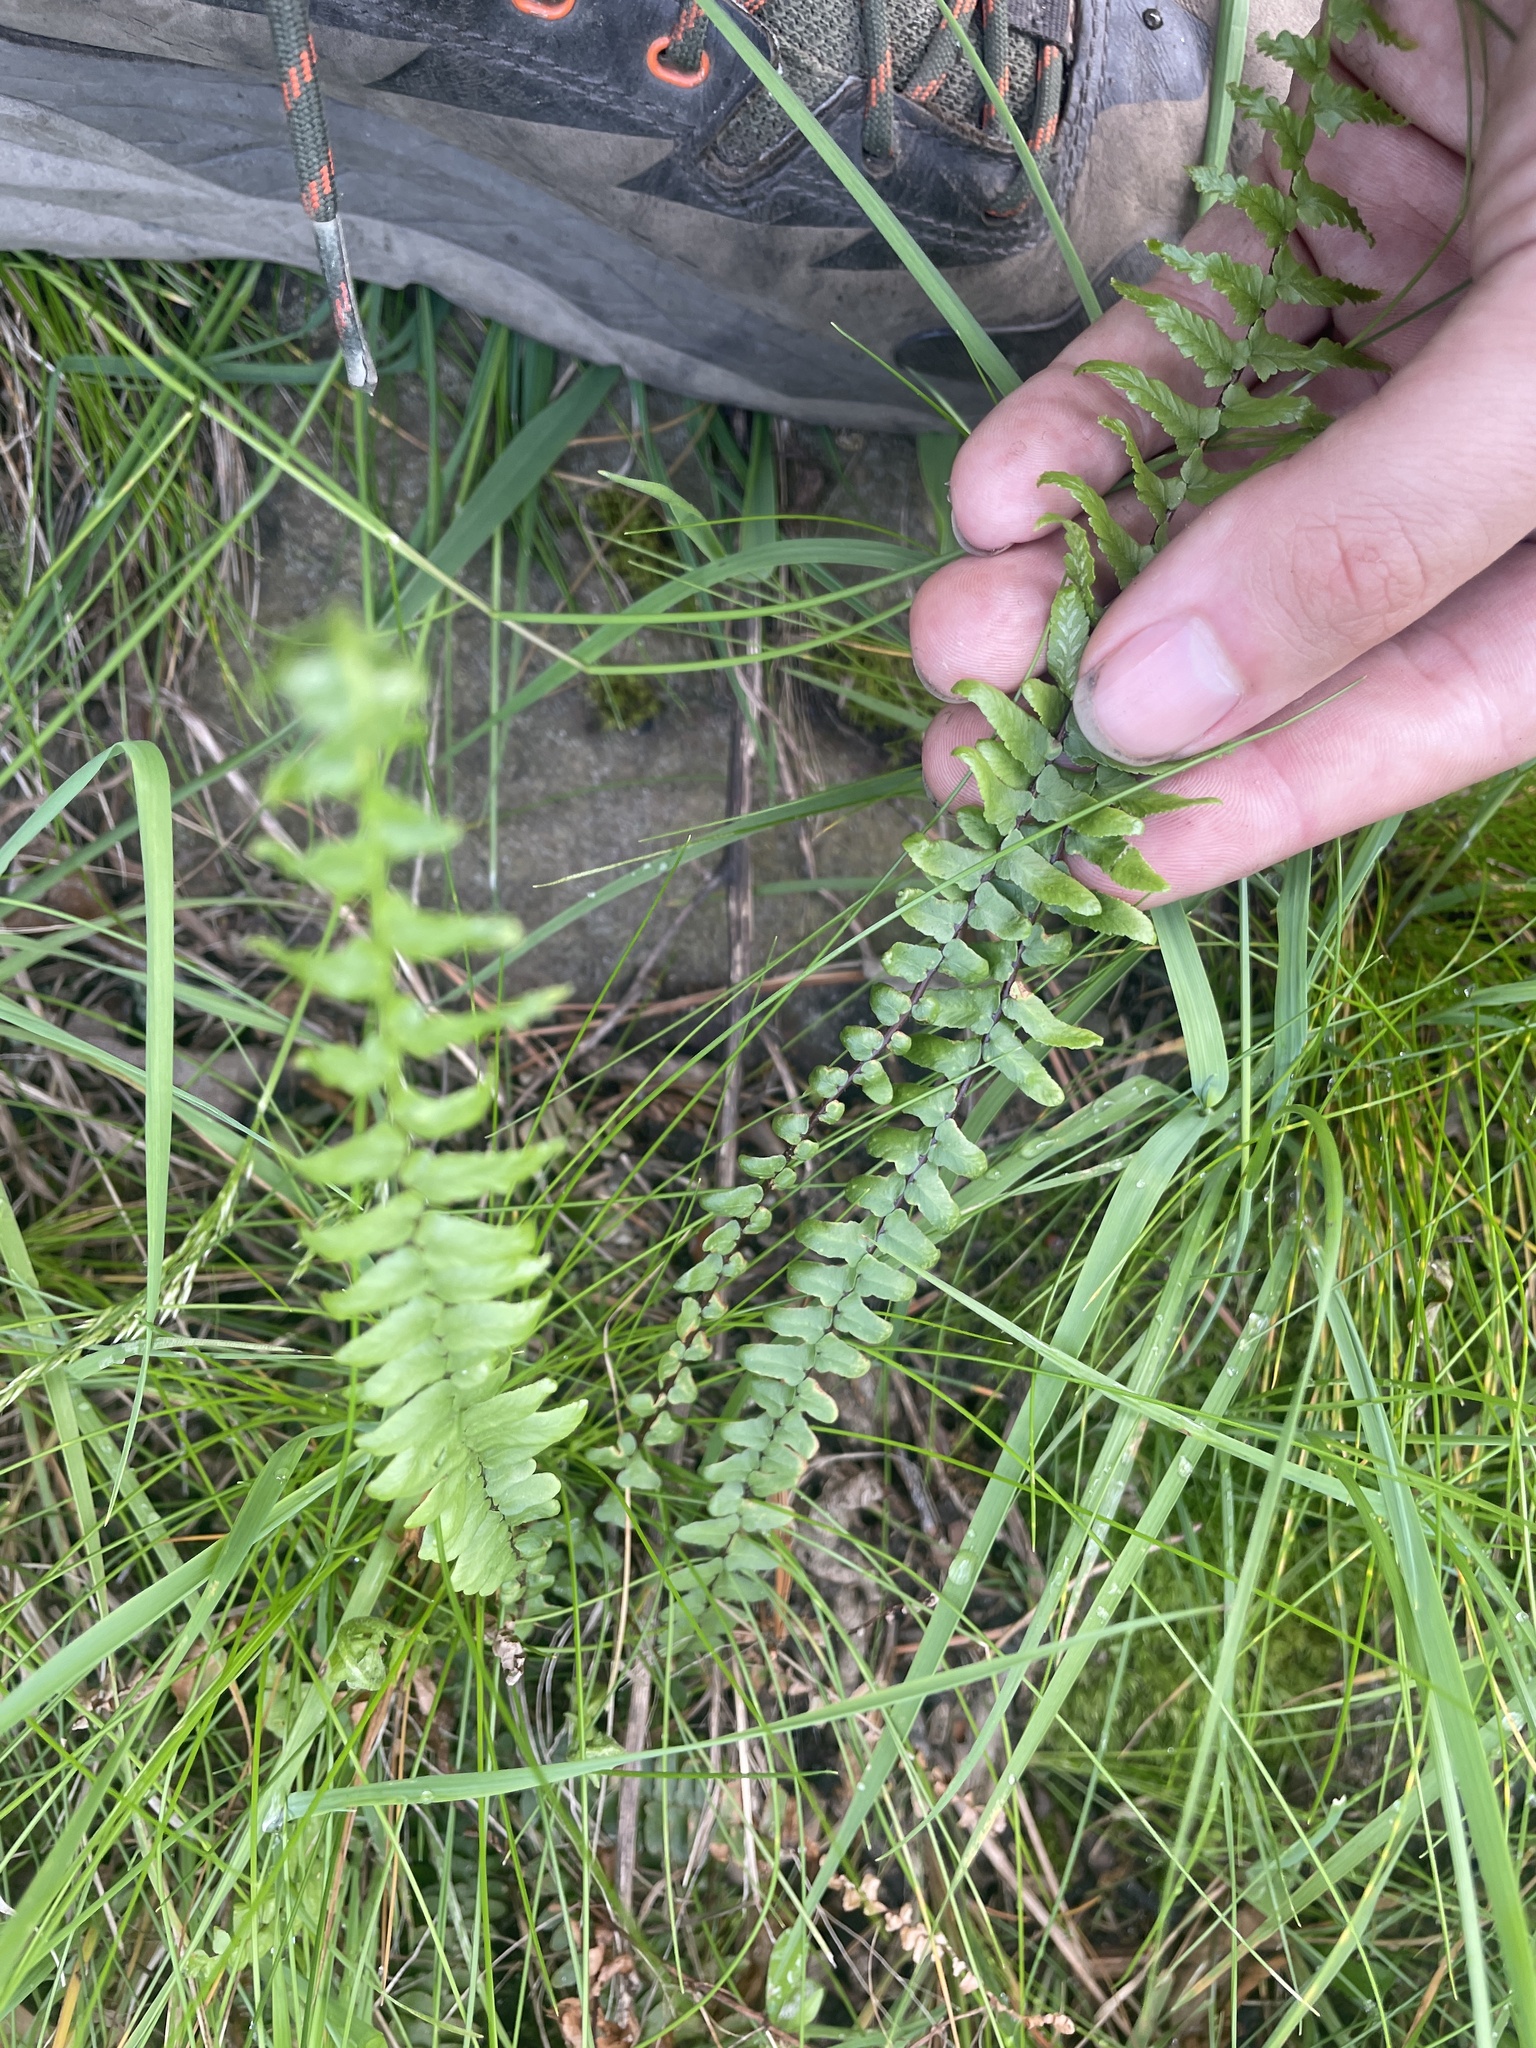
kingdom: Plantae
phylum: Tracheophyta
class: Polypodiopsida
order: Polypodiales
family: Aspleniaceae
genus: Asplenium
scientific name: Asplenium platyneuron
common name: Ebony spleenwort
